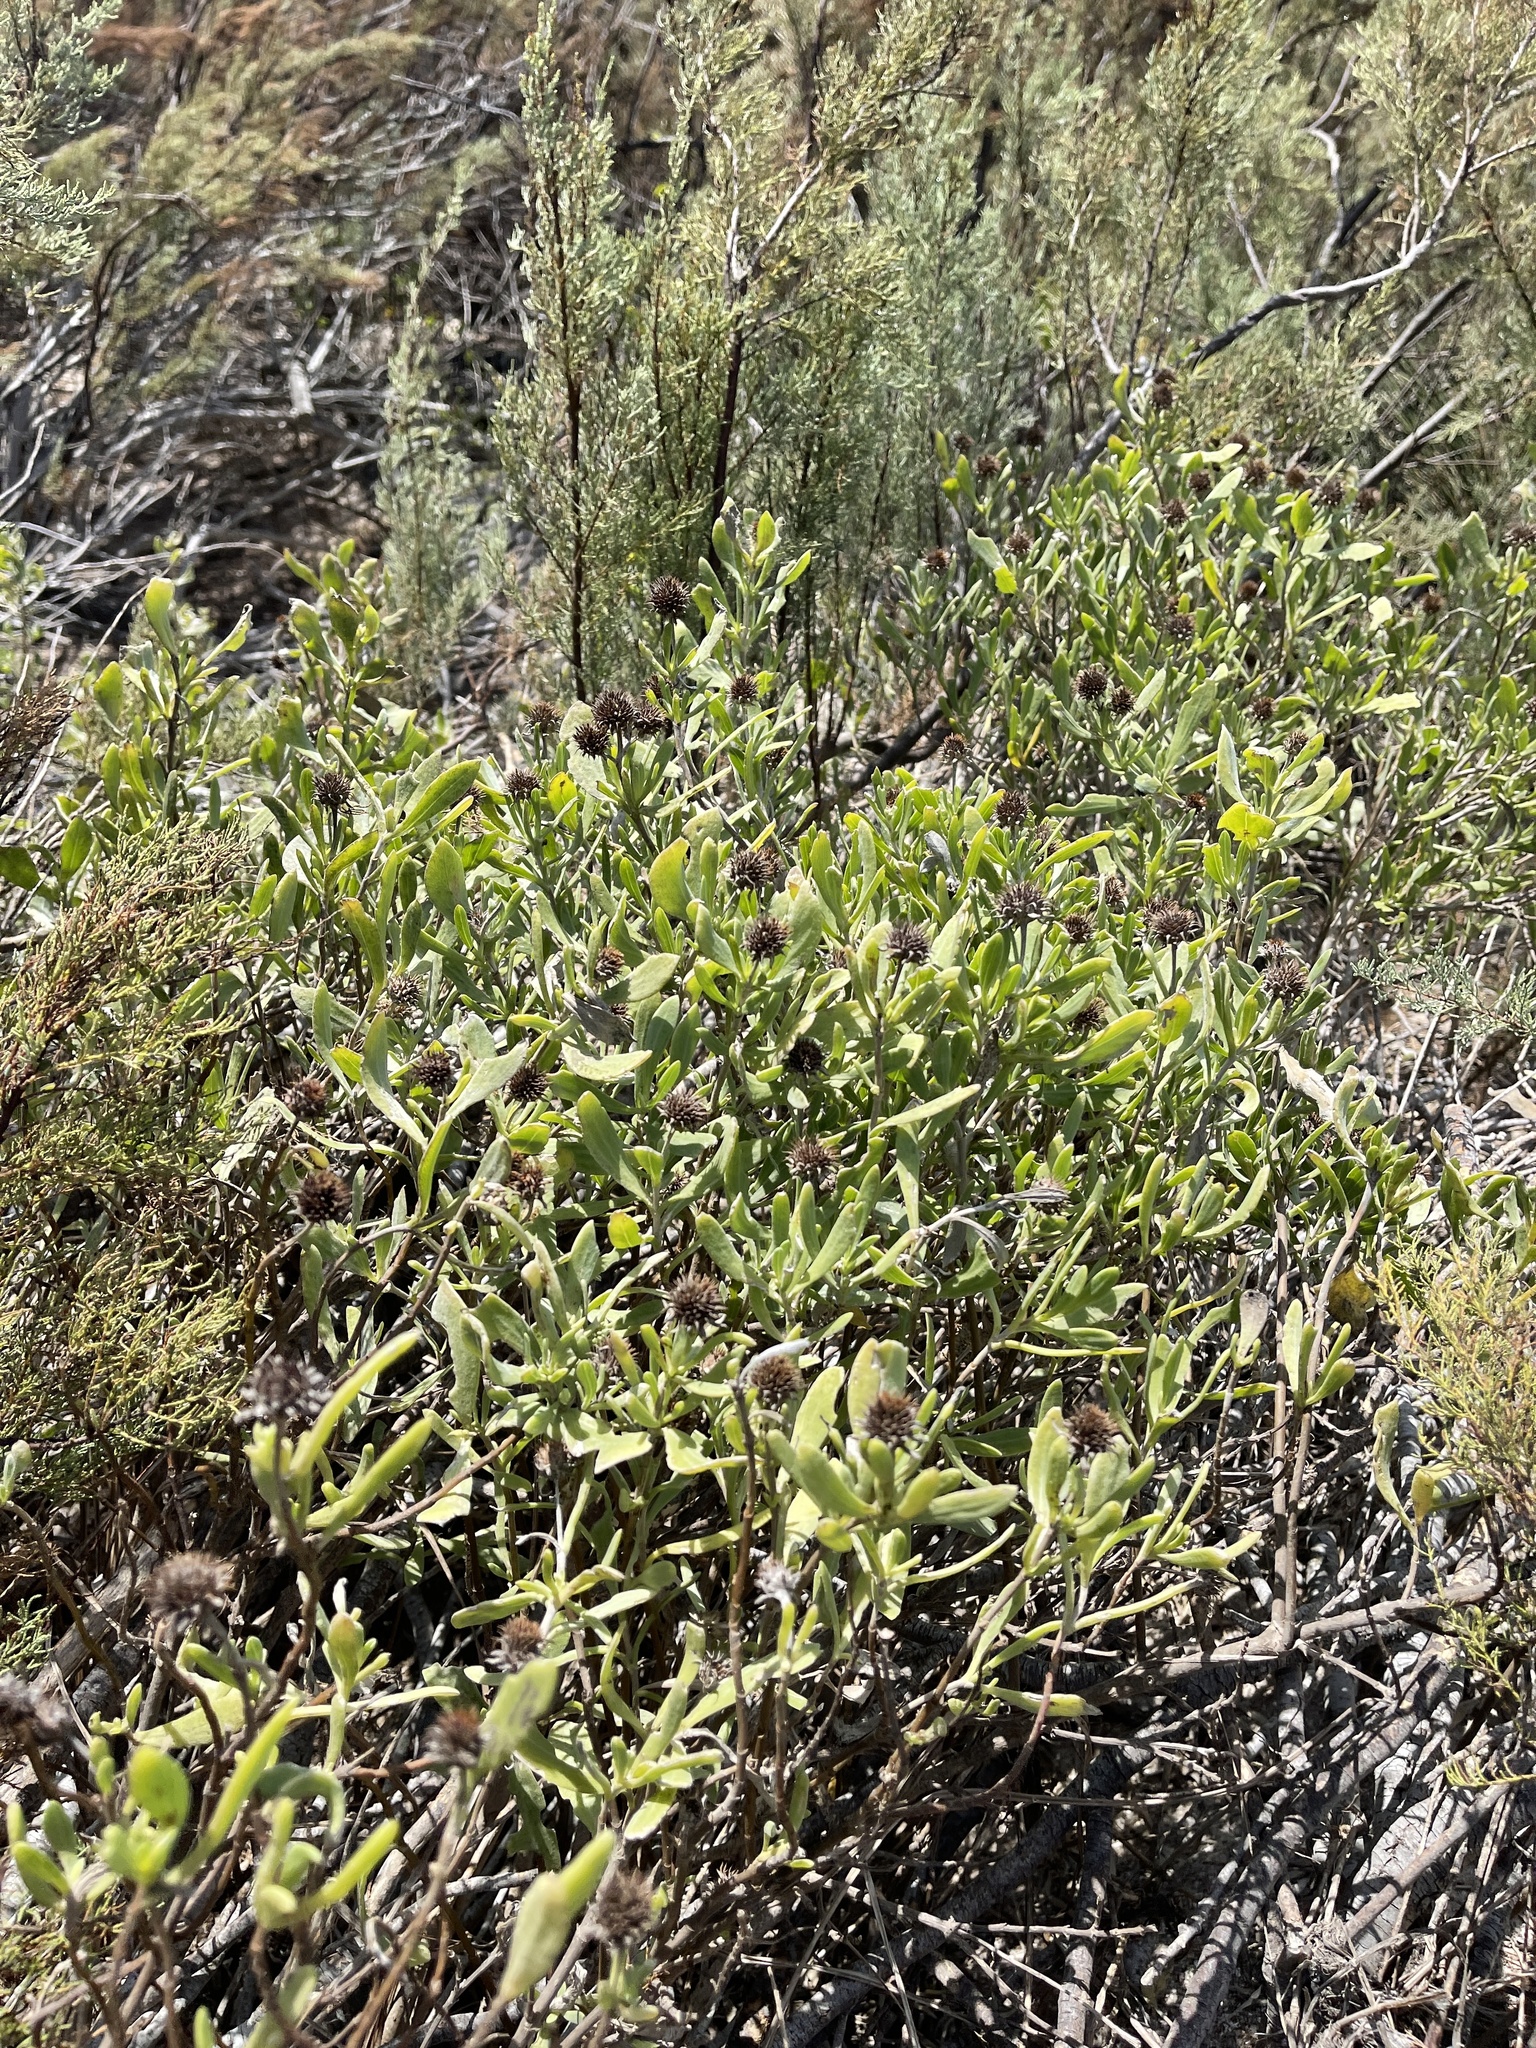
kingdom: Plantae
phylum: Tracheophyta
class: Magnoliopsida
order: Asterales
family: Asteraceae
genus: Borrichia
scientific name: Borrichia frutescens
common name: Sea oxeye
